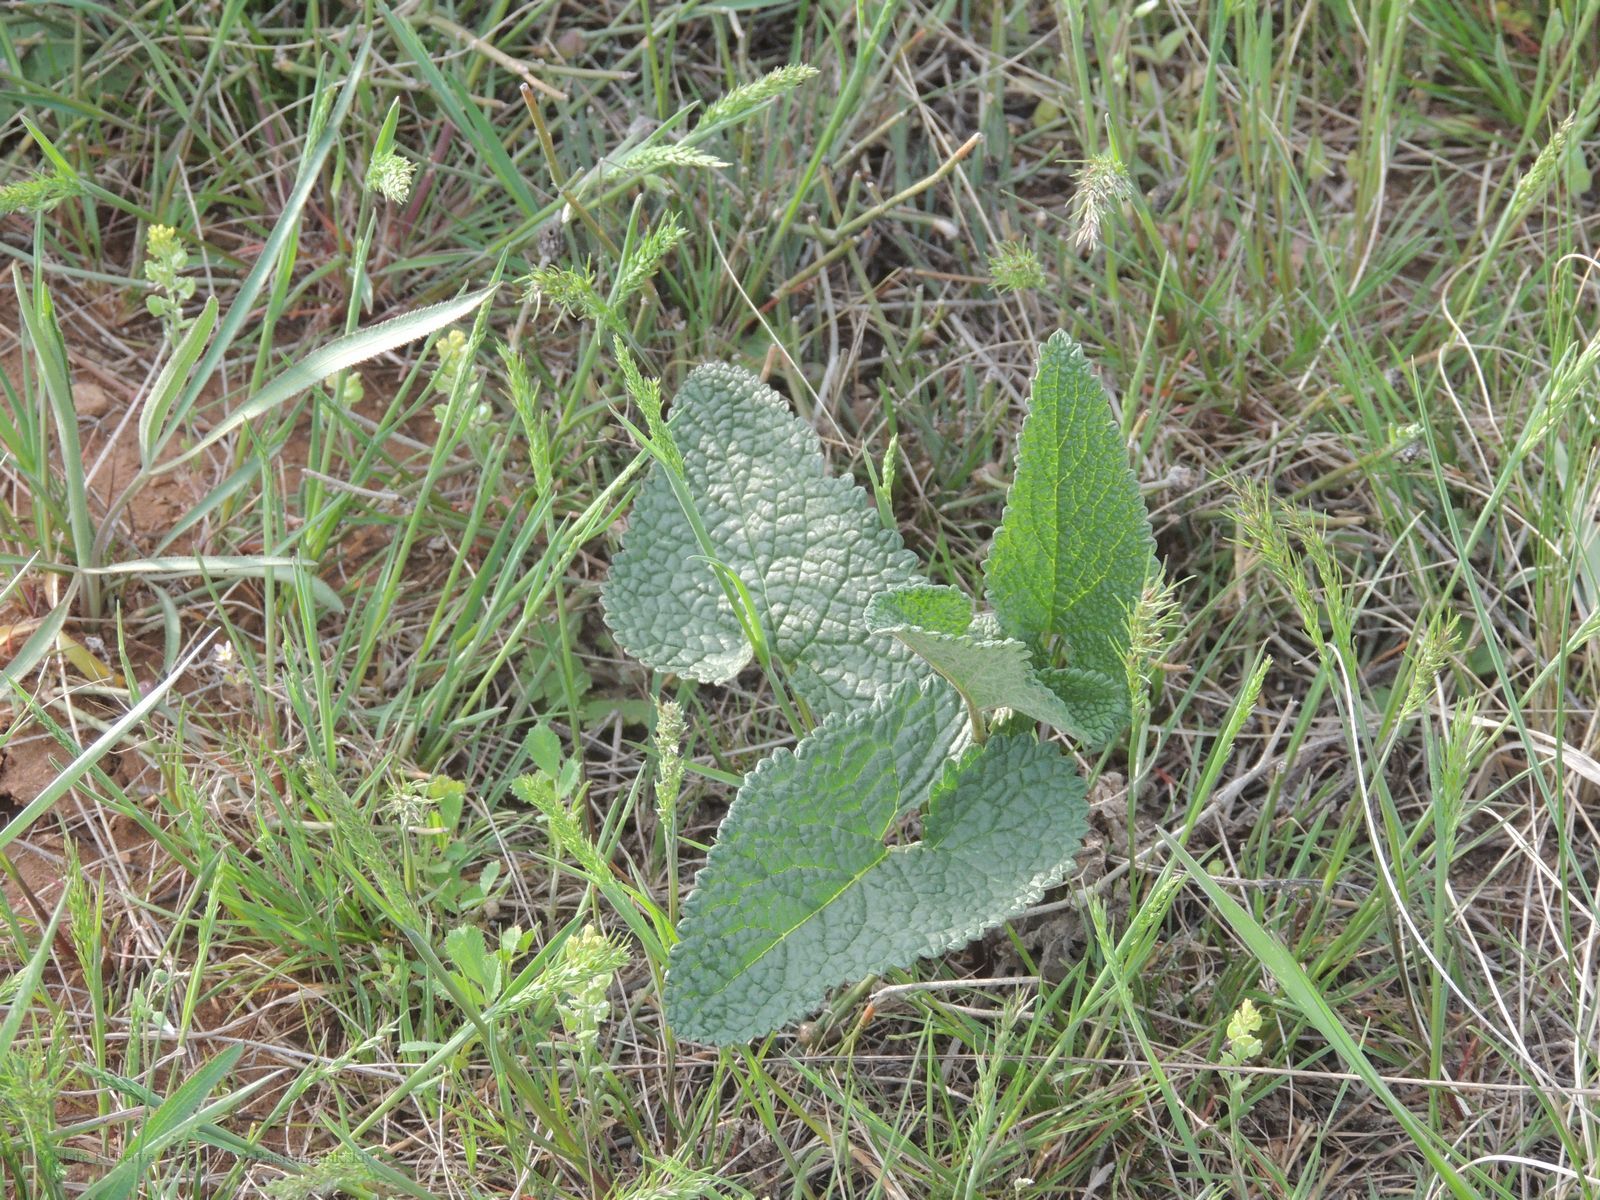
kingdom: Plantae
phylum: Tracheophyta
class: Magnoliopsida
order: Lamiales
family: Lamiaceae
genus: Phlomoides
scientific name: Phlomoides tuberosa
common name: Tuberous jerusalem sage
